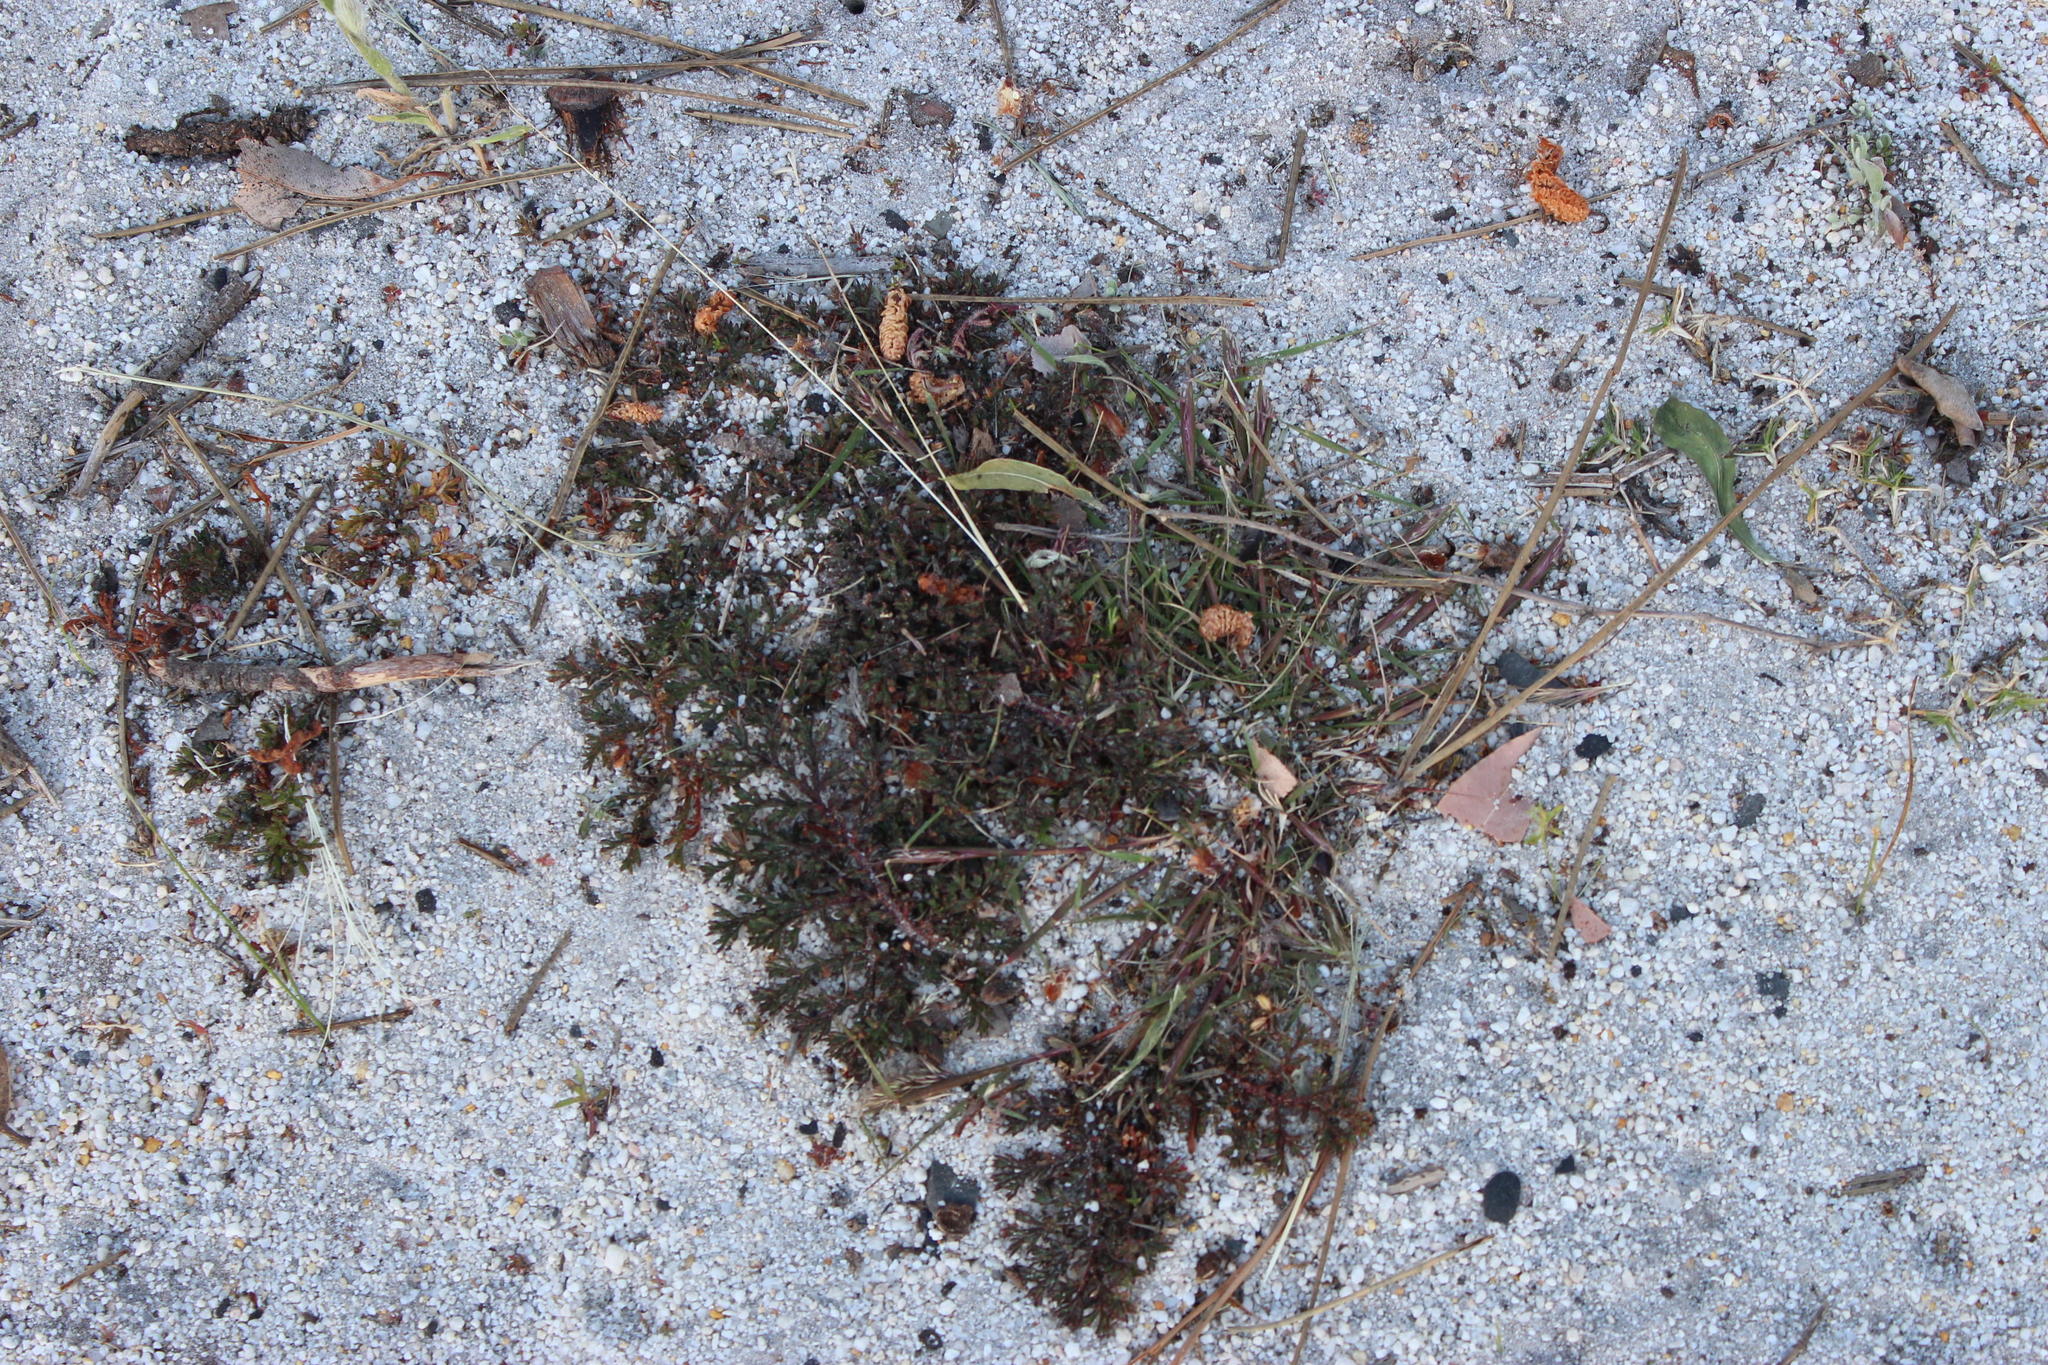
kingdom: Plantae
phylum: Tracheophyta
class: Magnoliopsida
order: Geraniales
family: Geraniaceae
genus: Pelargonium
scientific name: Pelargonium triste
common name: Night-scent pelargonium
